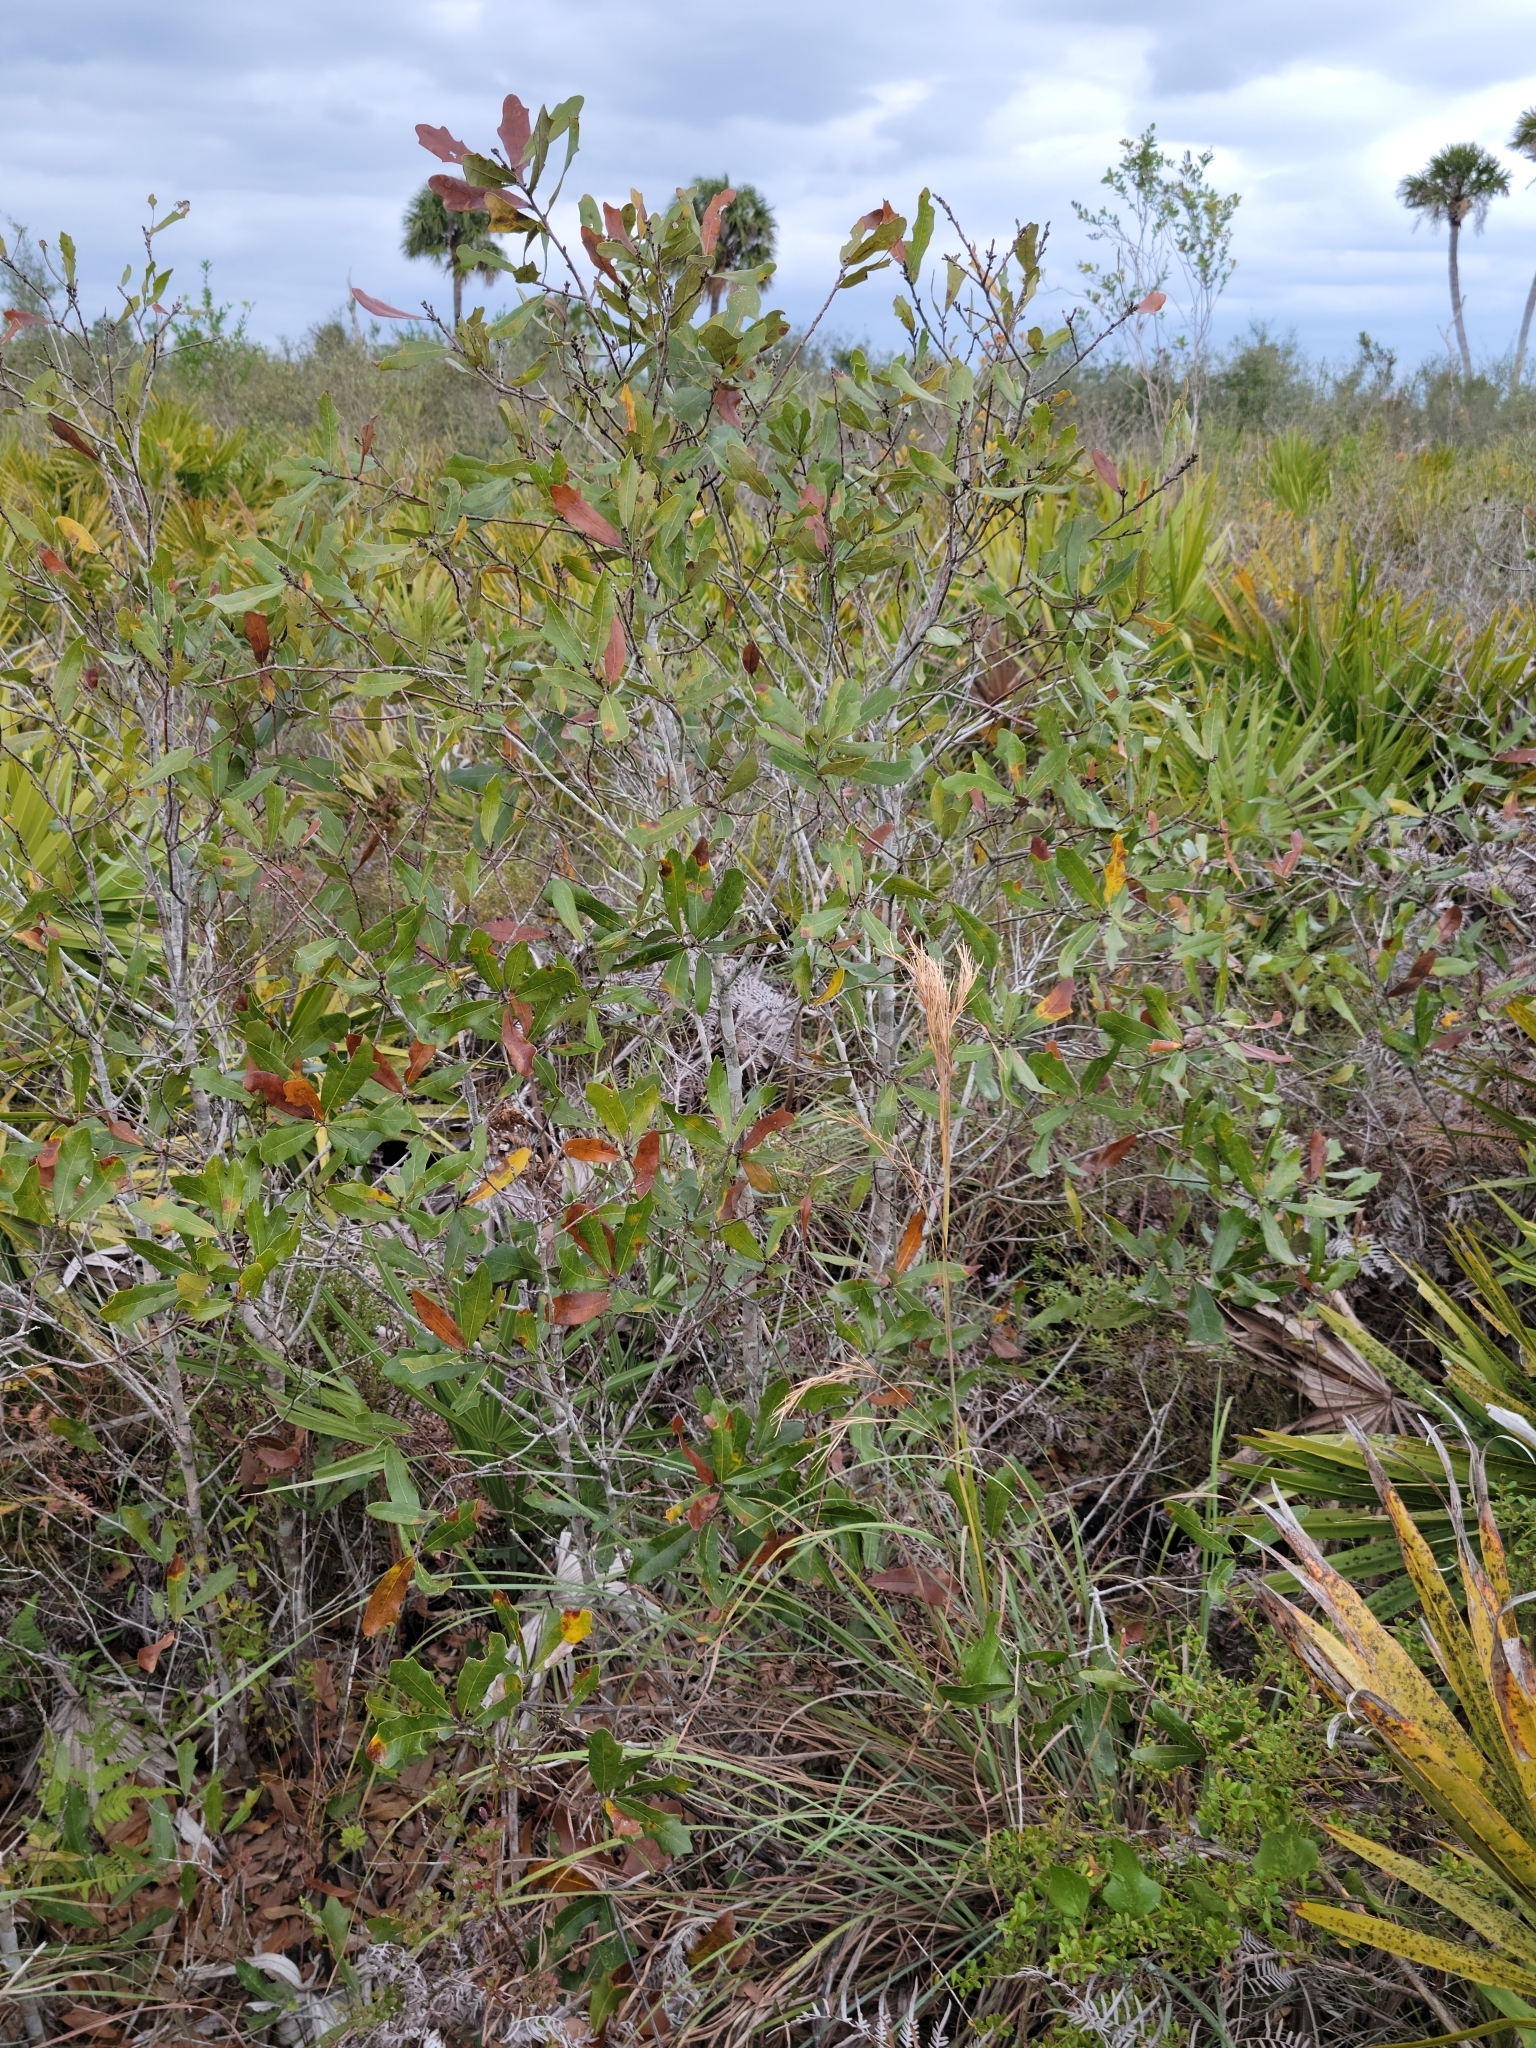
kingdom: Plantae
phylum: Tracheophyta
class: Magnoliopsida
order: Fagales
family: Fagaceae
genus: Quercus
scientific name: Quercus rolfsii
